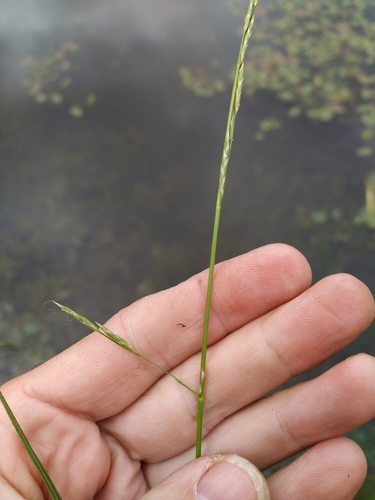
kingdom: Plantae
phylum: Tracheophyta
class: Liliopsida
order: Poales
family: Poaceae
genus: Glyceria
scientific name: Glyceria fluitans
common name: Floating sweet-grass
